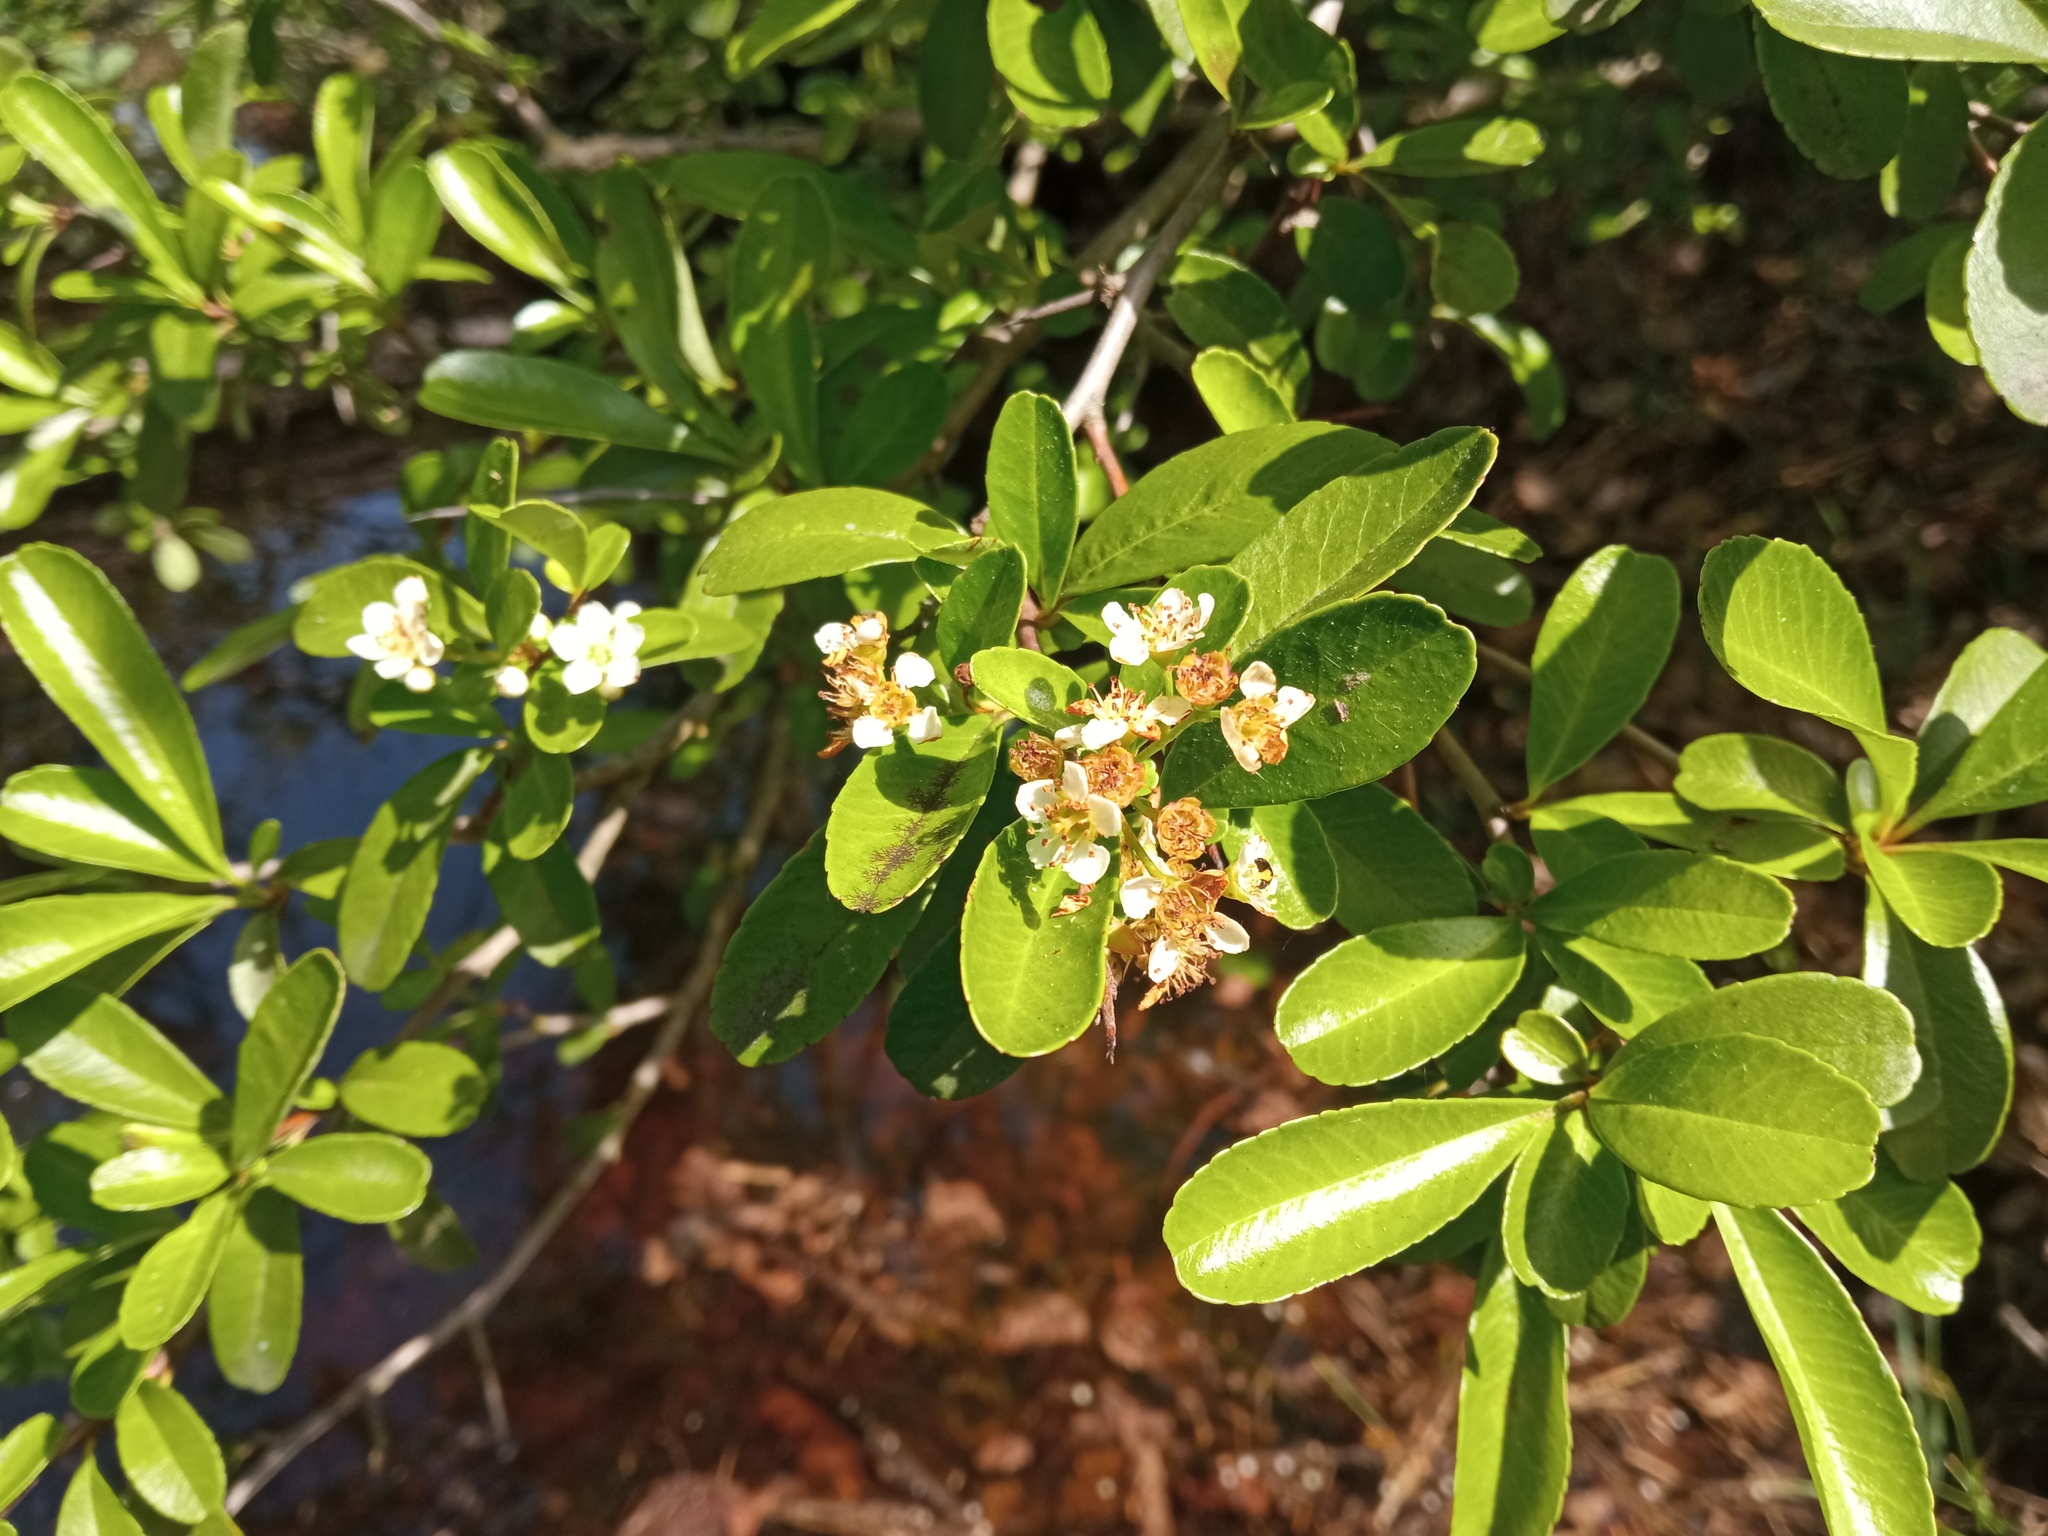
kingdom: Plantae
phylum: Tracheophyta
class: Magnoliopsida
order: Rosales
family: Rosaceae
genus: Pyracantha
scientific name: Pyracantha fortuneana
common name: Chinese firethorn
